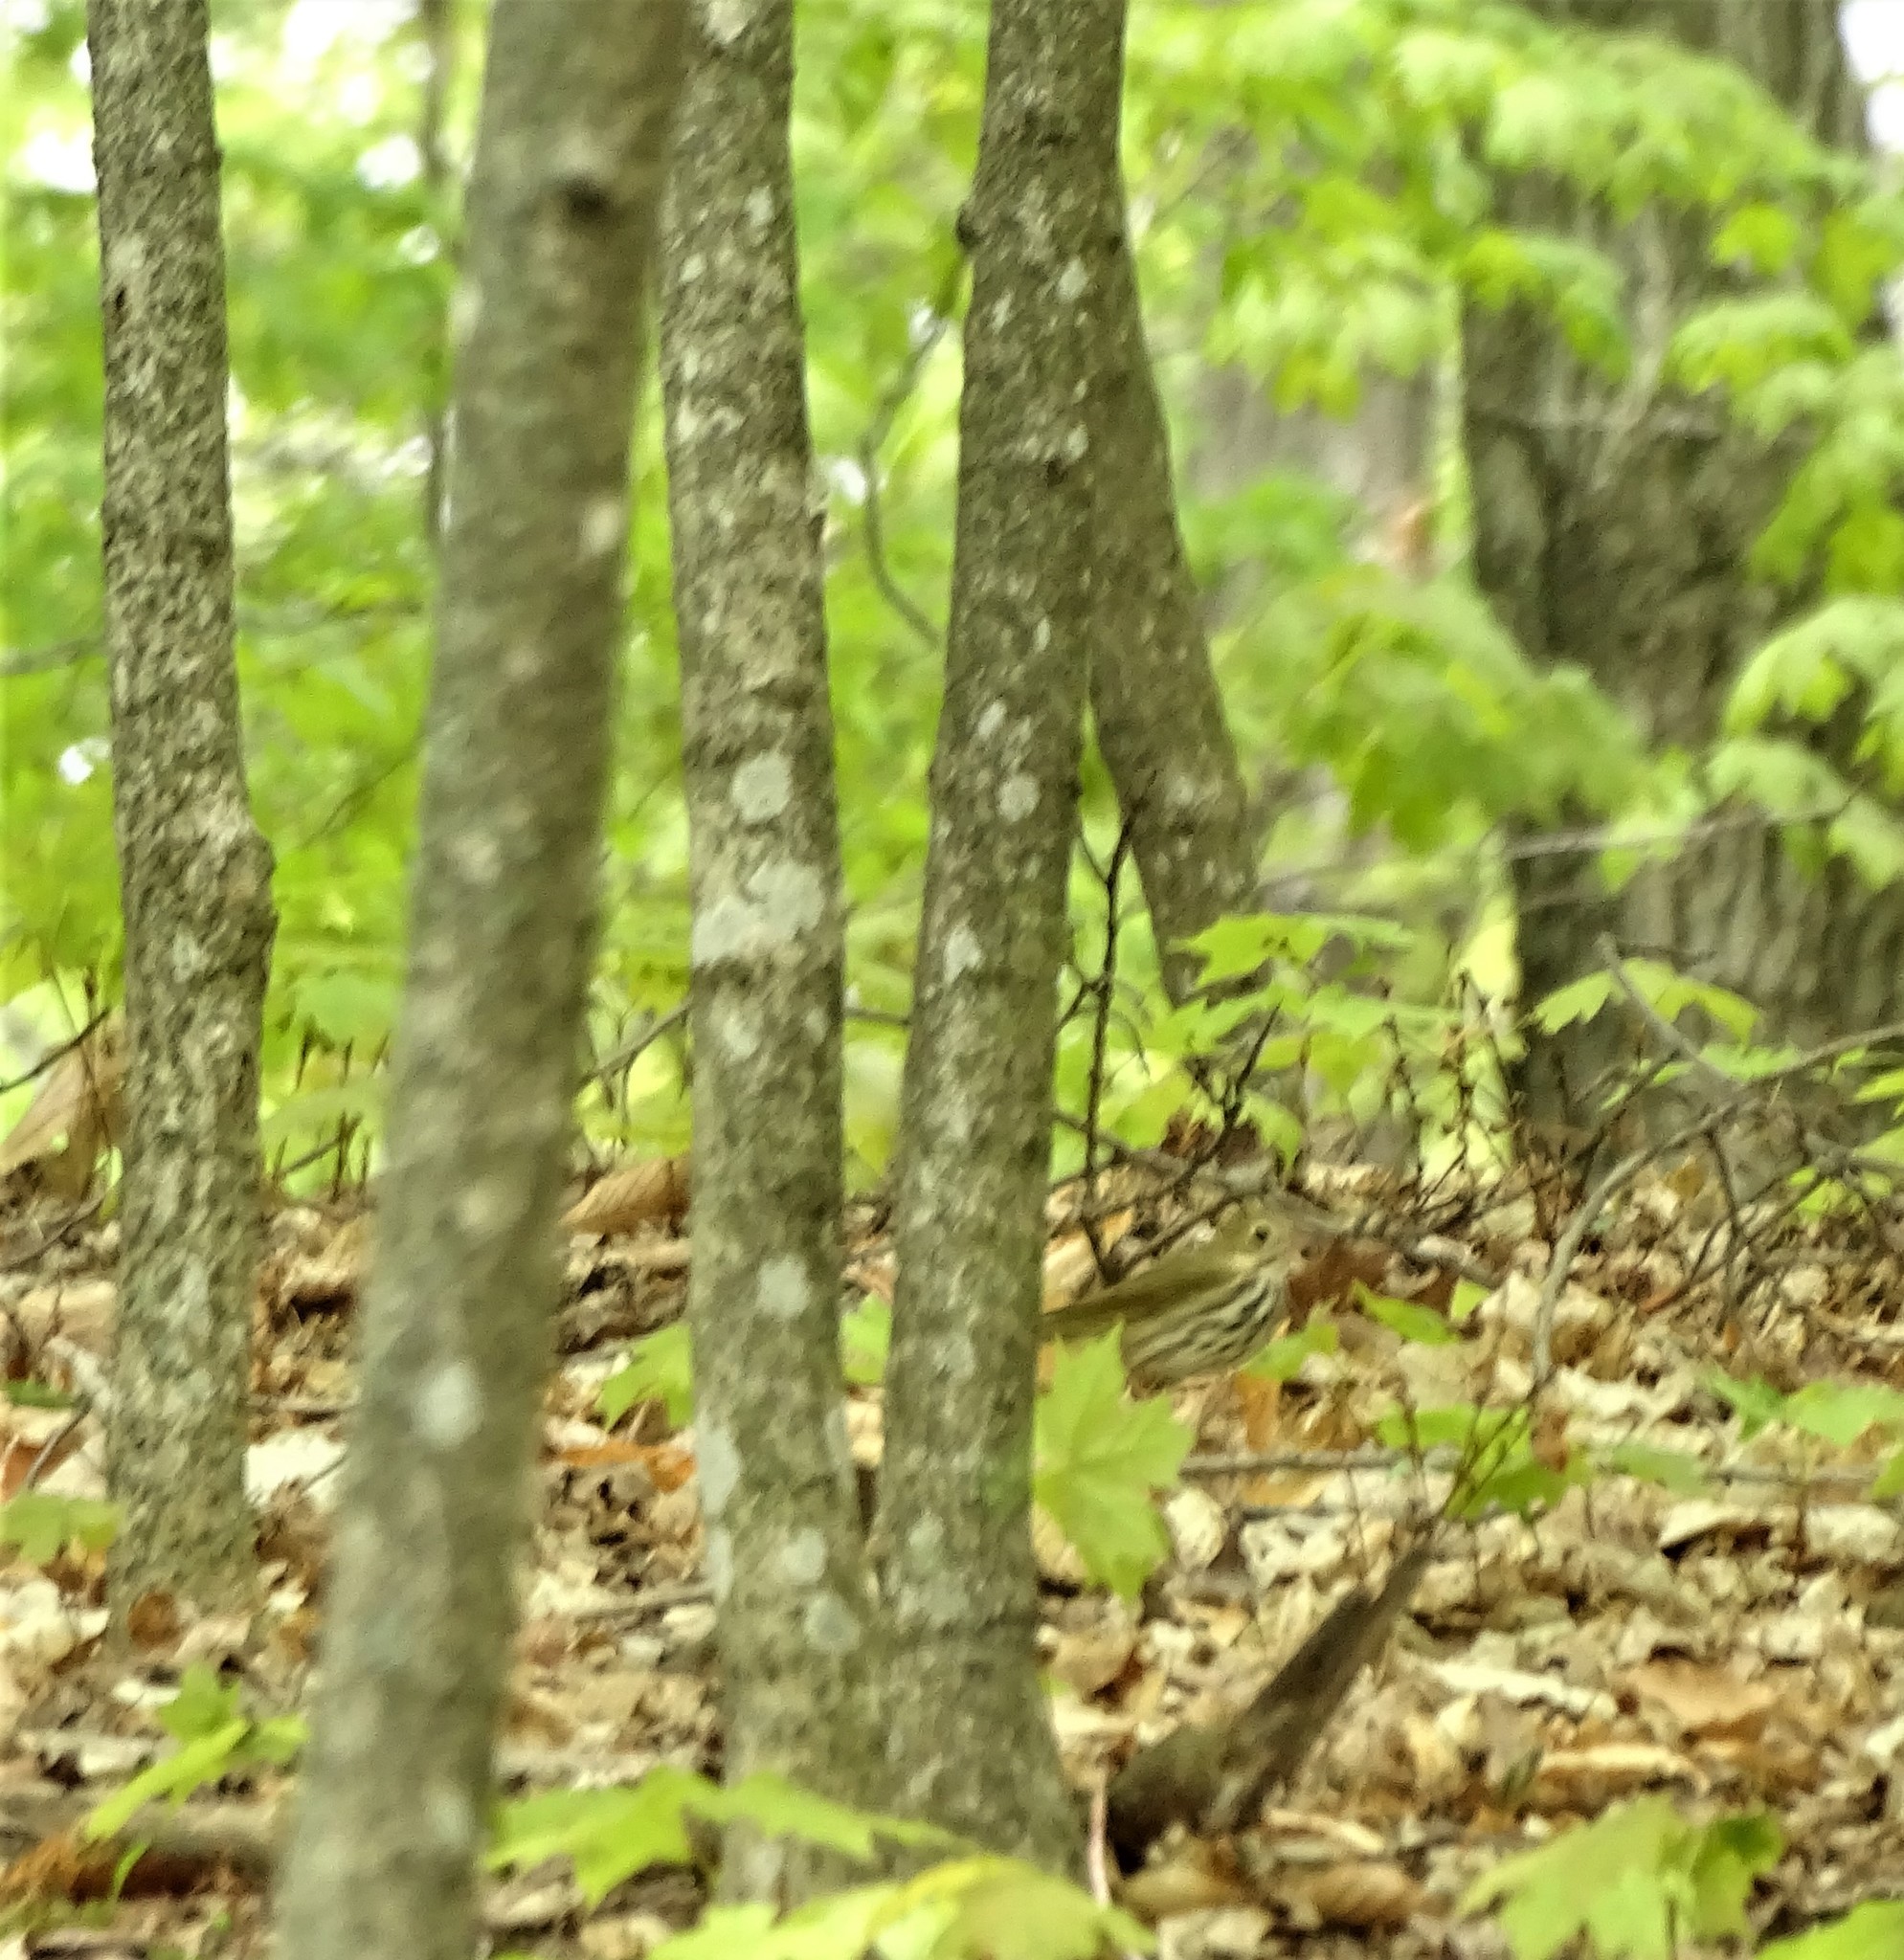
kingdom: Animalia
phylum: Chordata
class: Aves
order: Passeriformes
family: Parulidae
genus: Seiurus
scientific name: Seiurus aurocapilla
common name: Ovenbird
